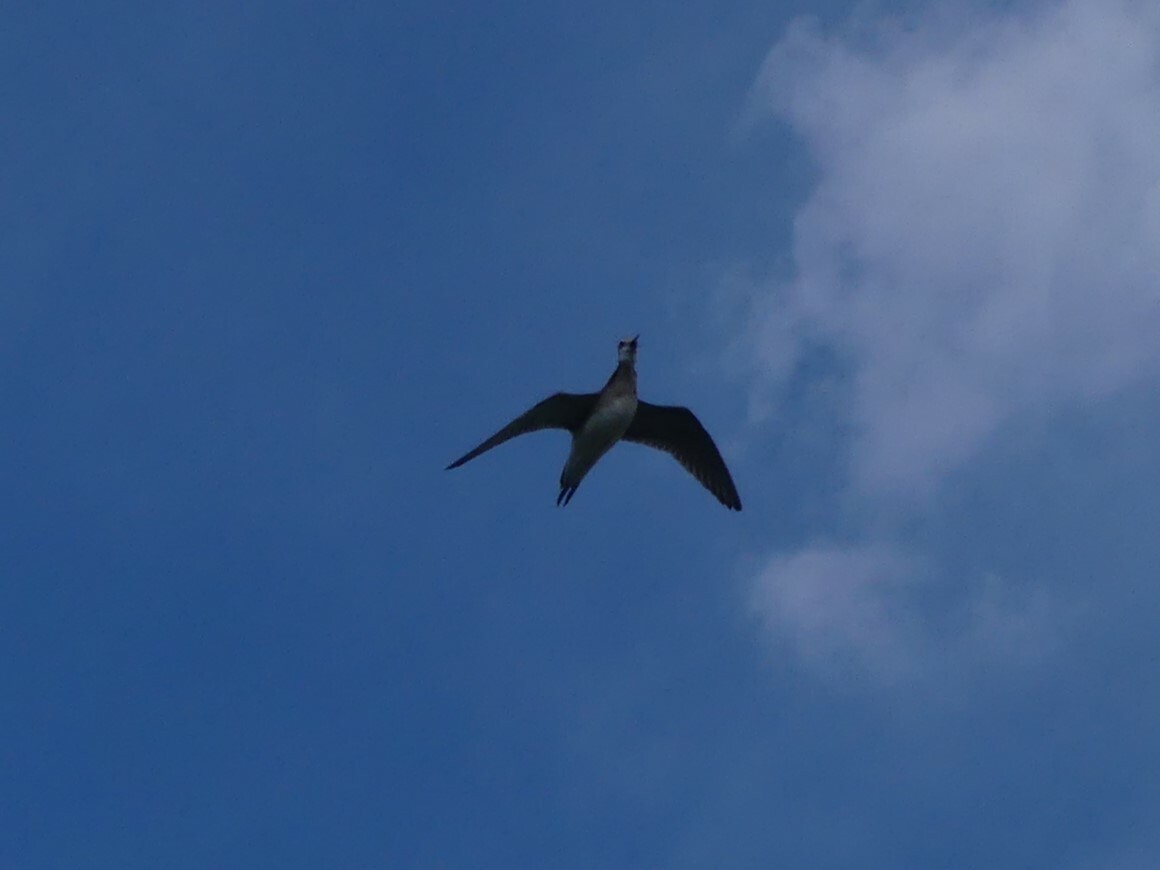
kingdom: Animalia
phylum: Chordata
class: Aves
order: Charadriiformes
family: Scolopacidae
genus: Phalaropus
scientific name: Phalaropus tricolor
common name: Wilson's phalarope
